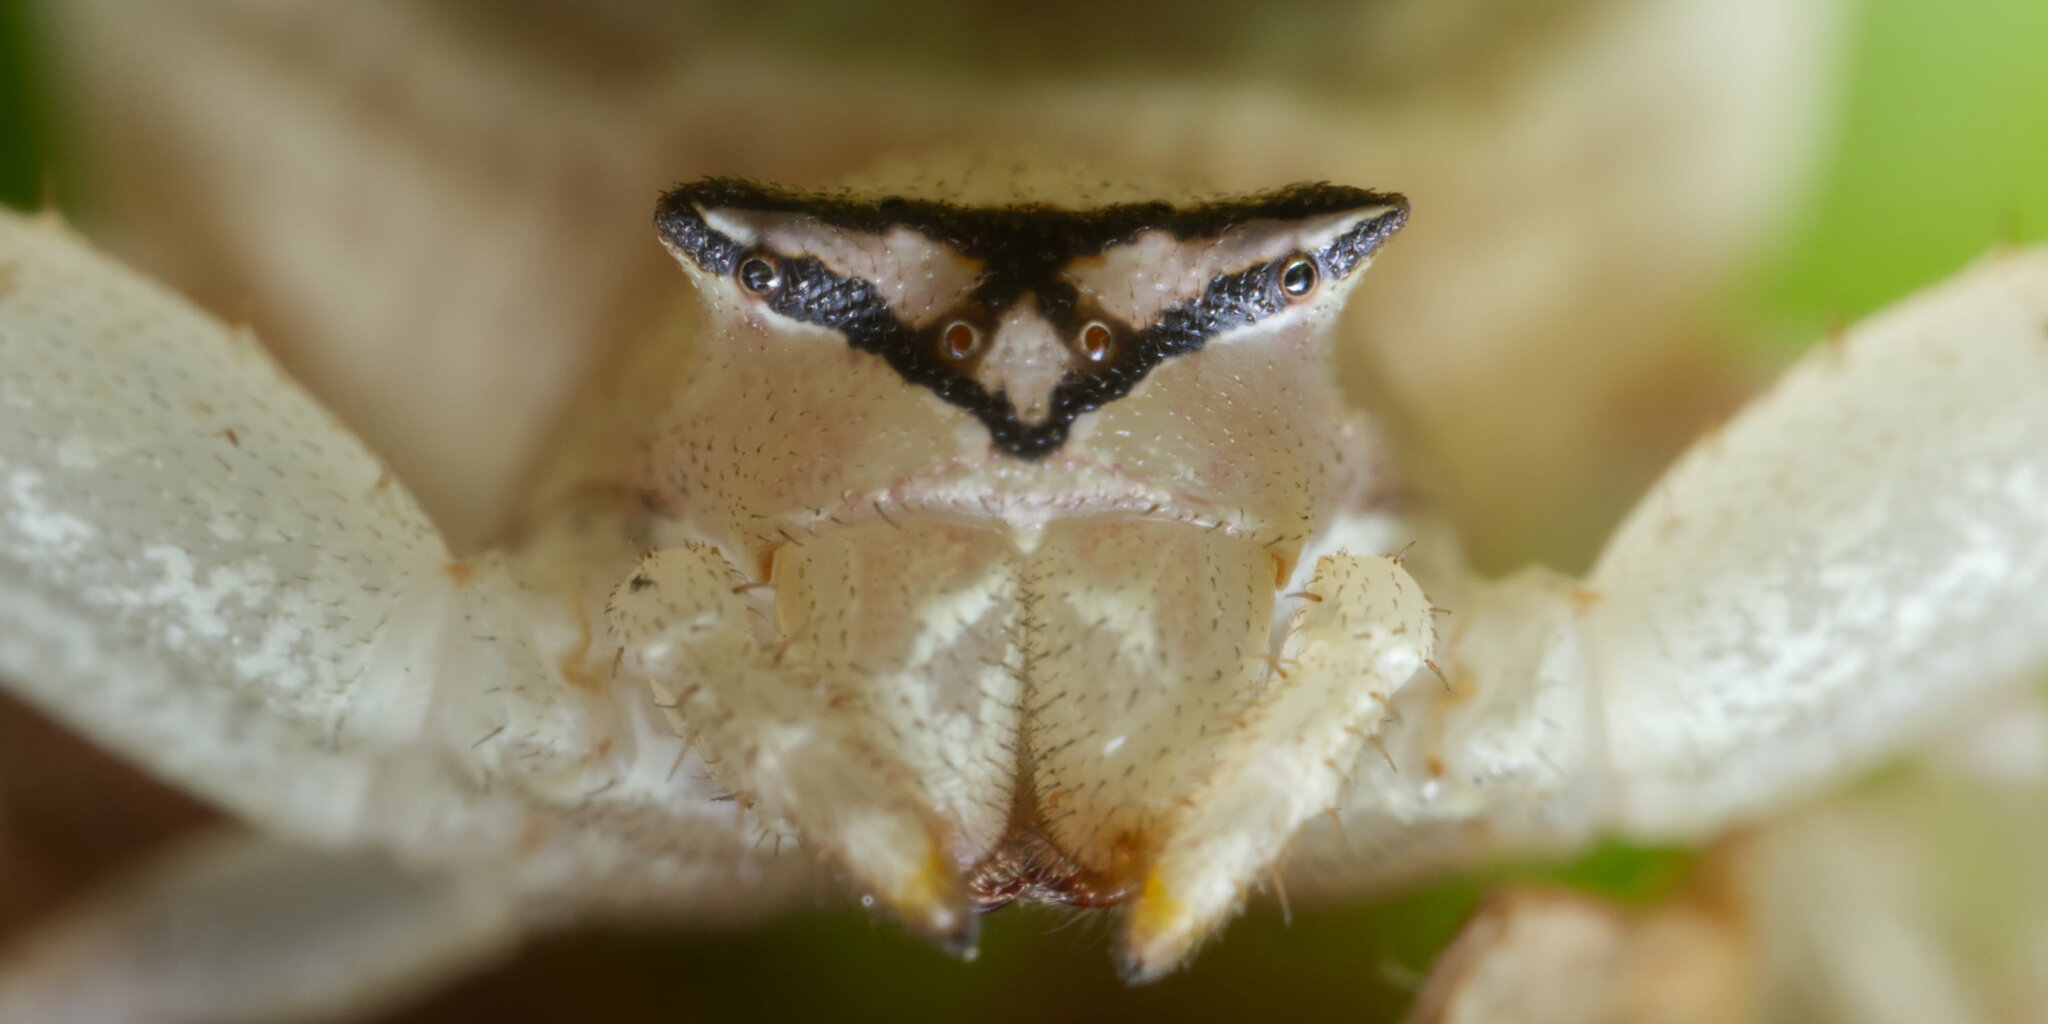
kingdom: Animalia
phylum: Arthropoda
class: Arachnida
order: Araneae
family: Thomisidae
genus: Thomisus
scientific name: Thomisus blandus
